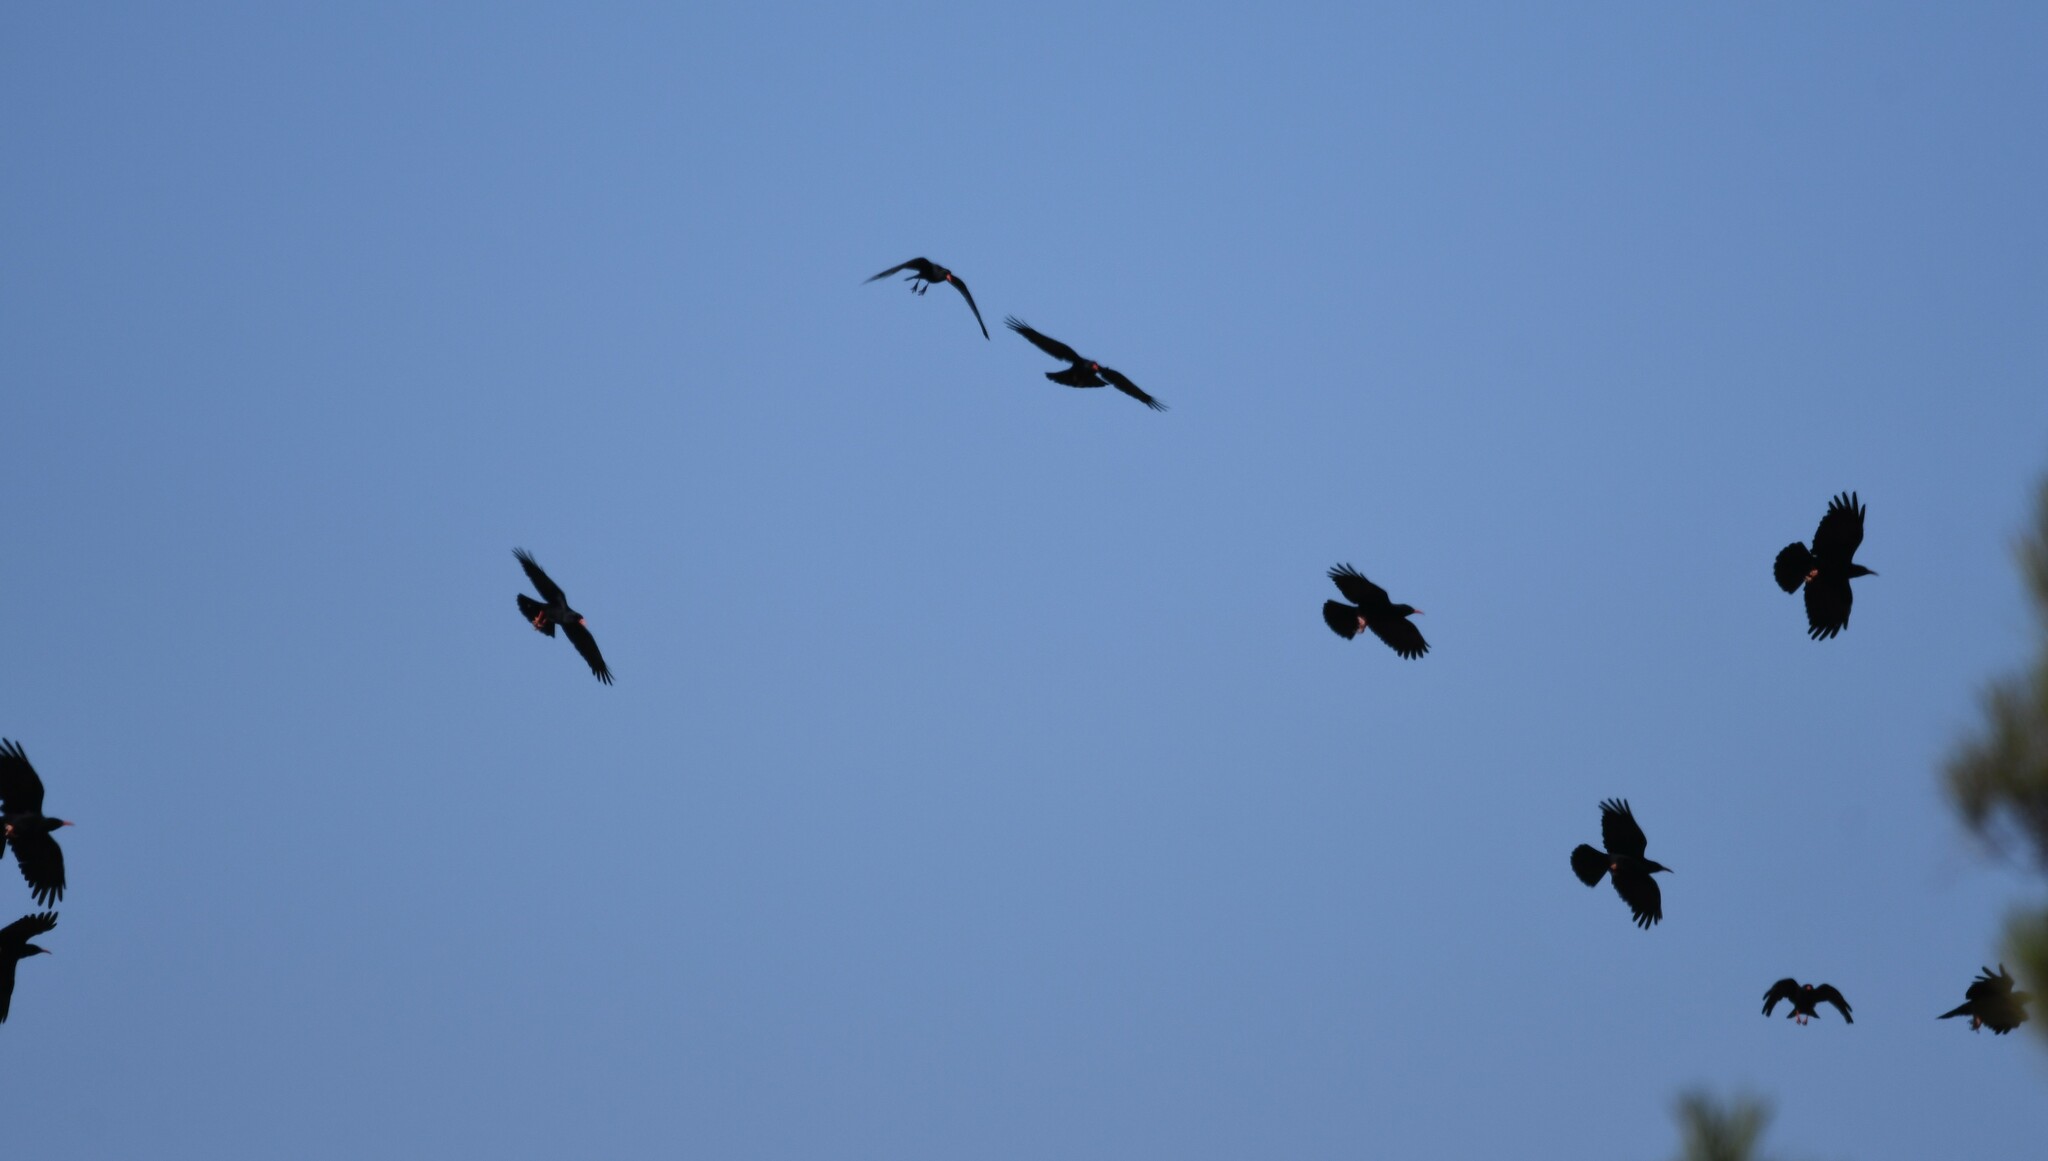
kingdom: Animalia
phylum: Chordata
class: Aves
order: Passeriformes
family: Corvidae
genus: Pyrrhocorax
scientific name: Pyrrhocorax pyrrhocorax
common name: Red-billed chough
